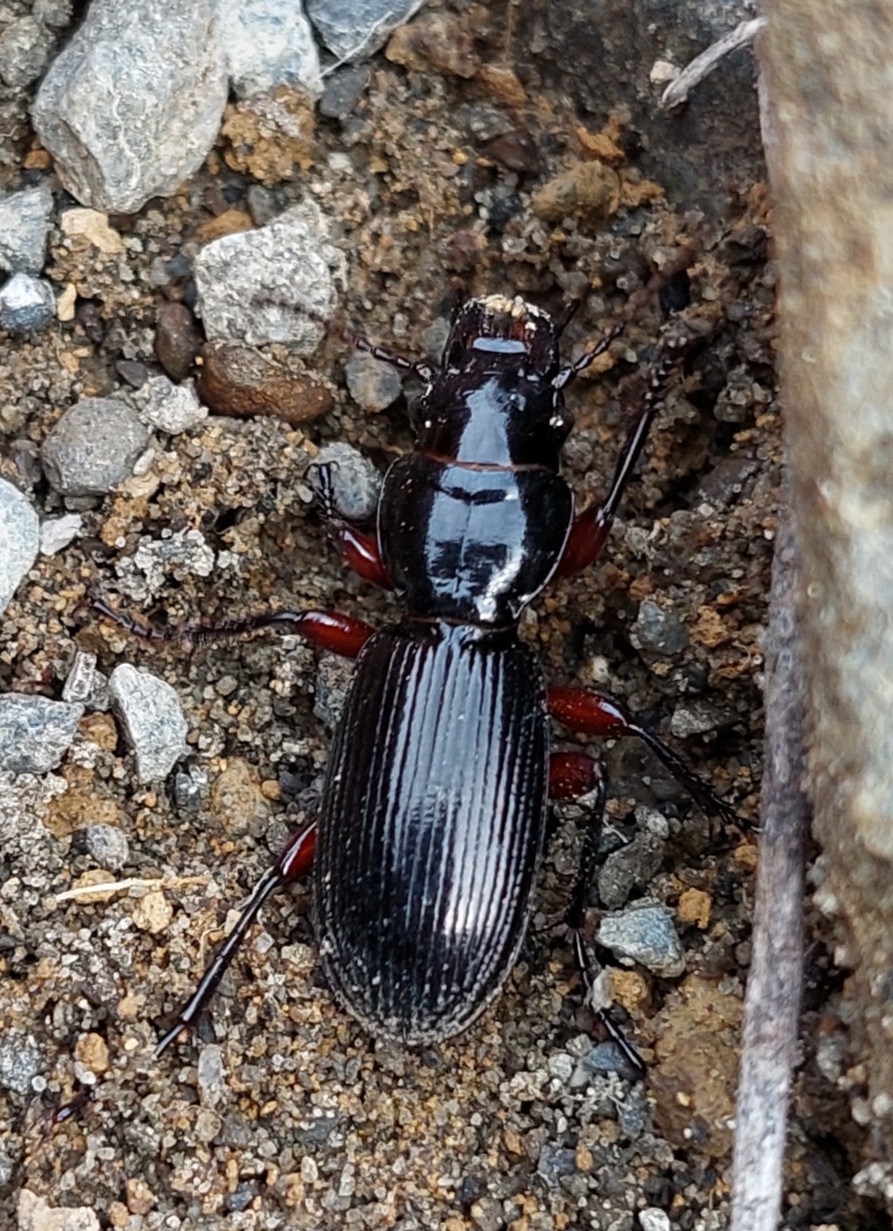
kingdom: Animalia
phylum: Arthropoda
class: Insecta
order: Coleoptera
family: Carabidae
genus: Mecodema
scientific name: Mecodema fulgidum
